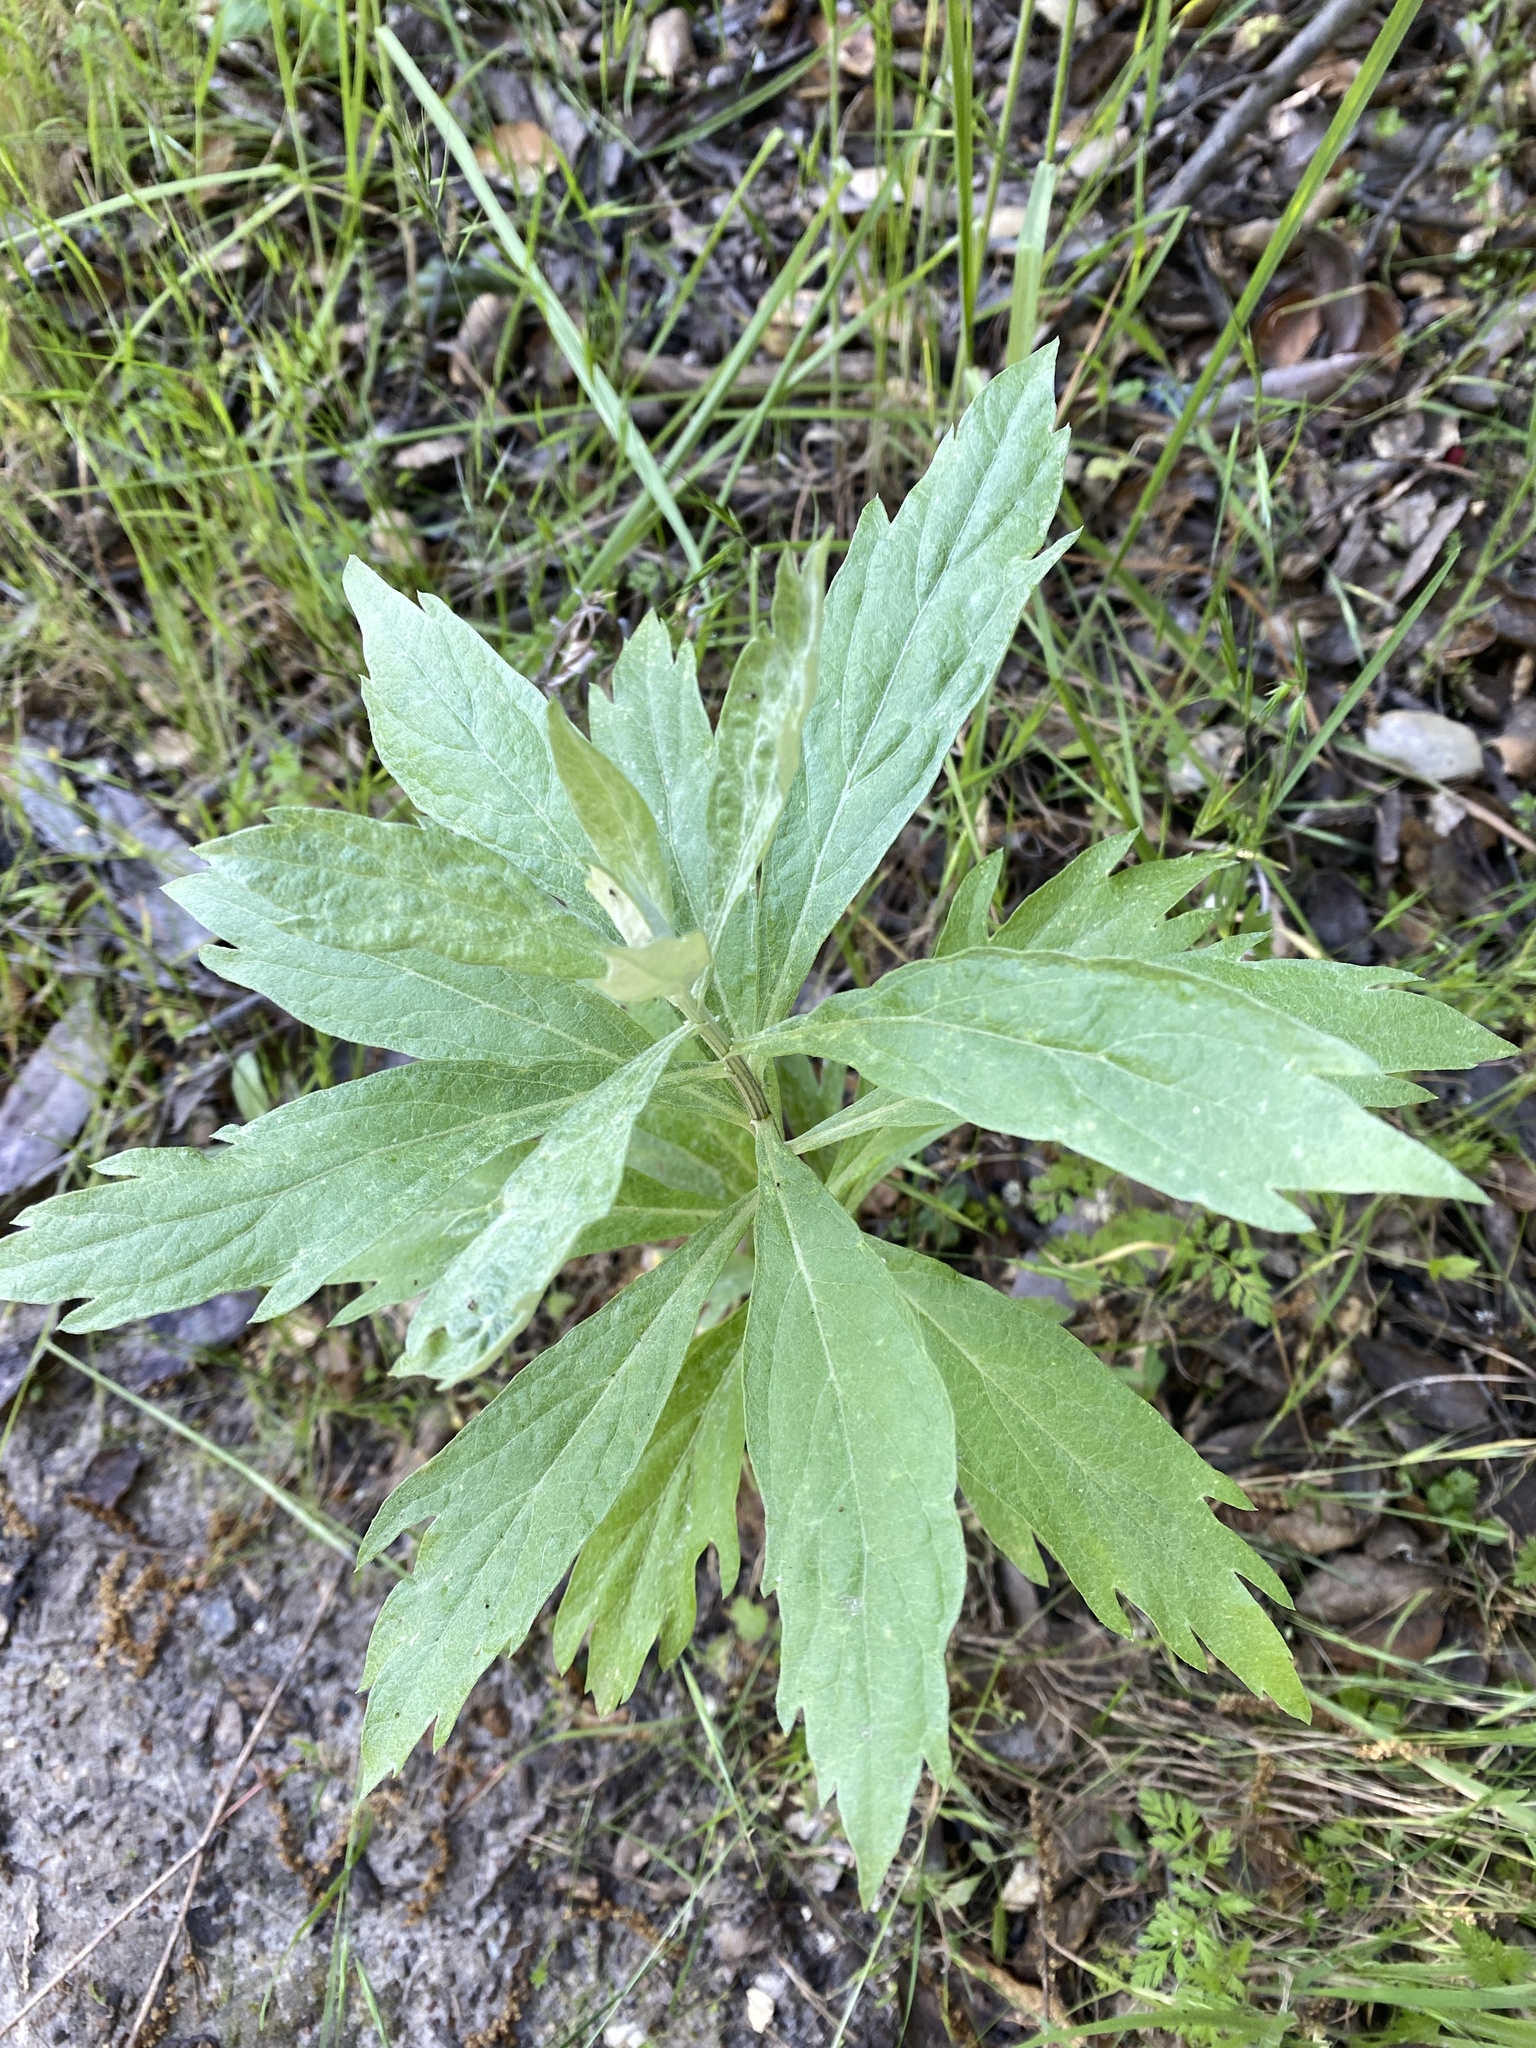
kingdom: Plantae
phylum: Tracheophyta
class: Magnoliopsida
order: Asterales
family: Asteraceae
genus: Artemisia
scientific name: Artemisia douglasiana
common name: Northwest mugwort
